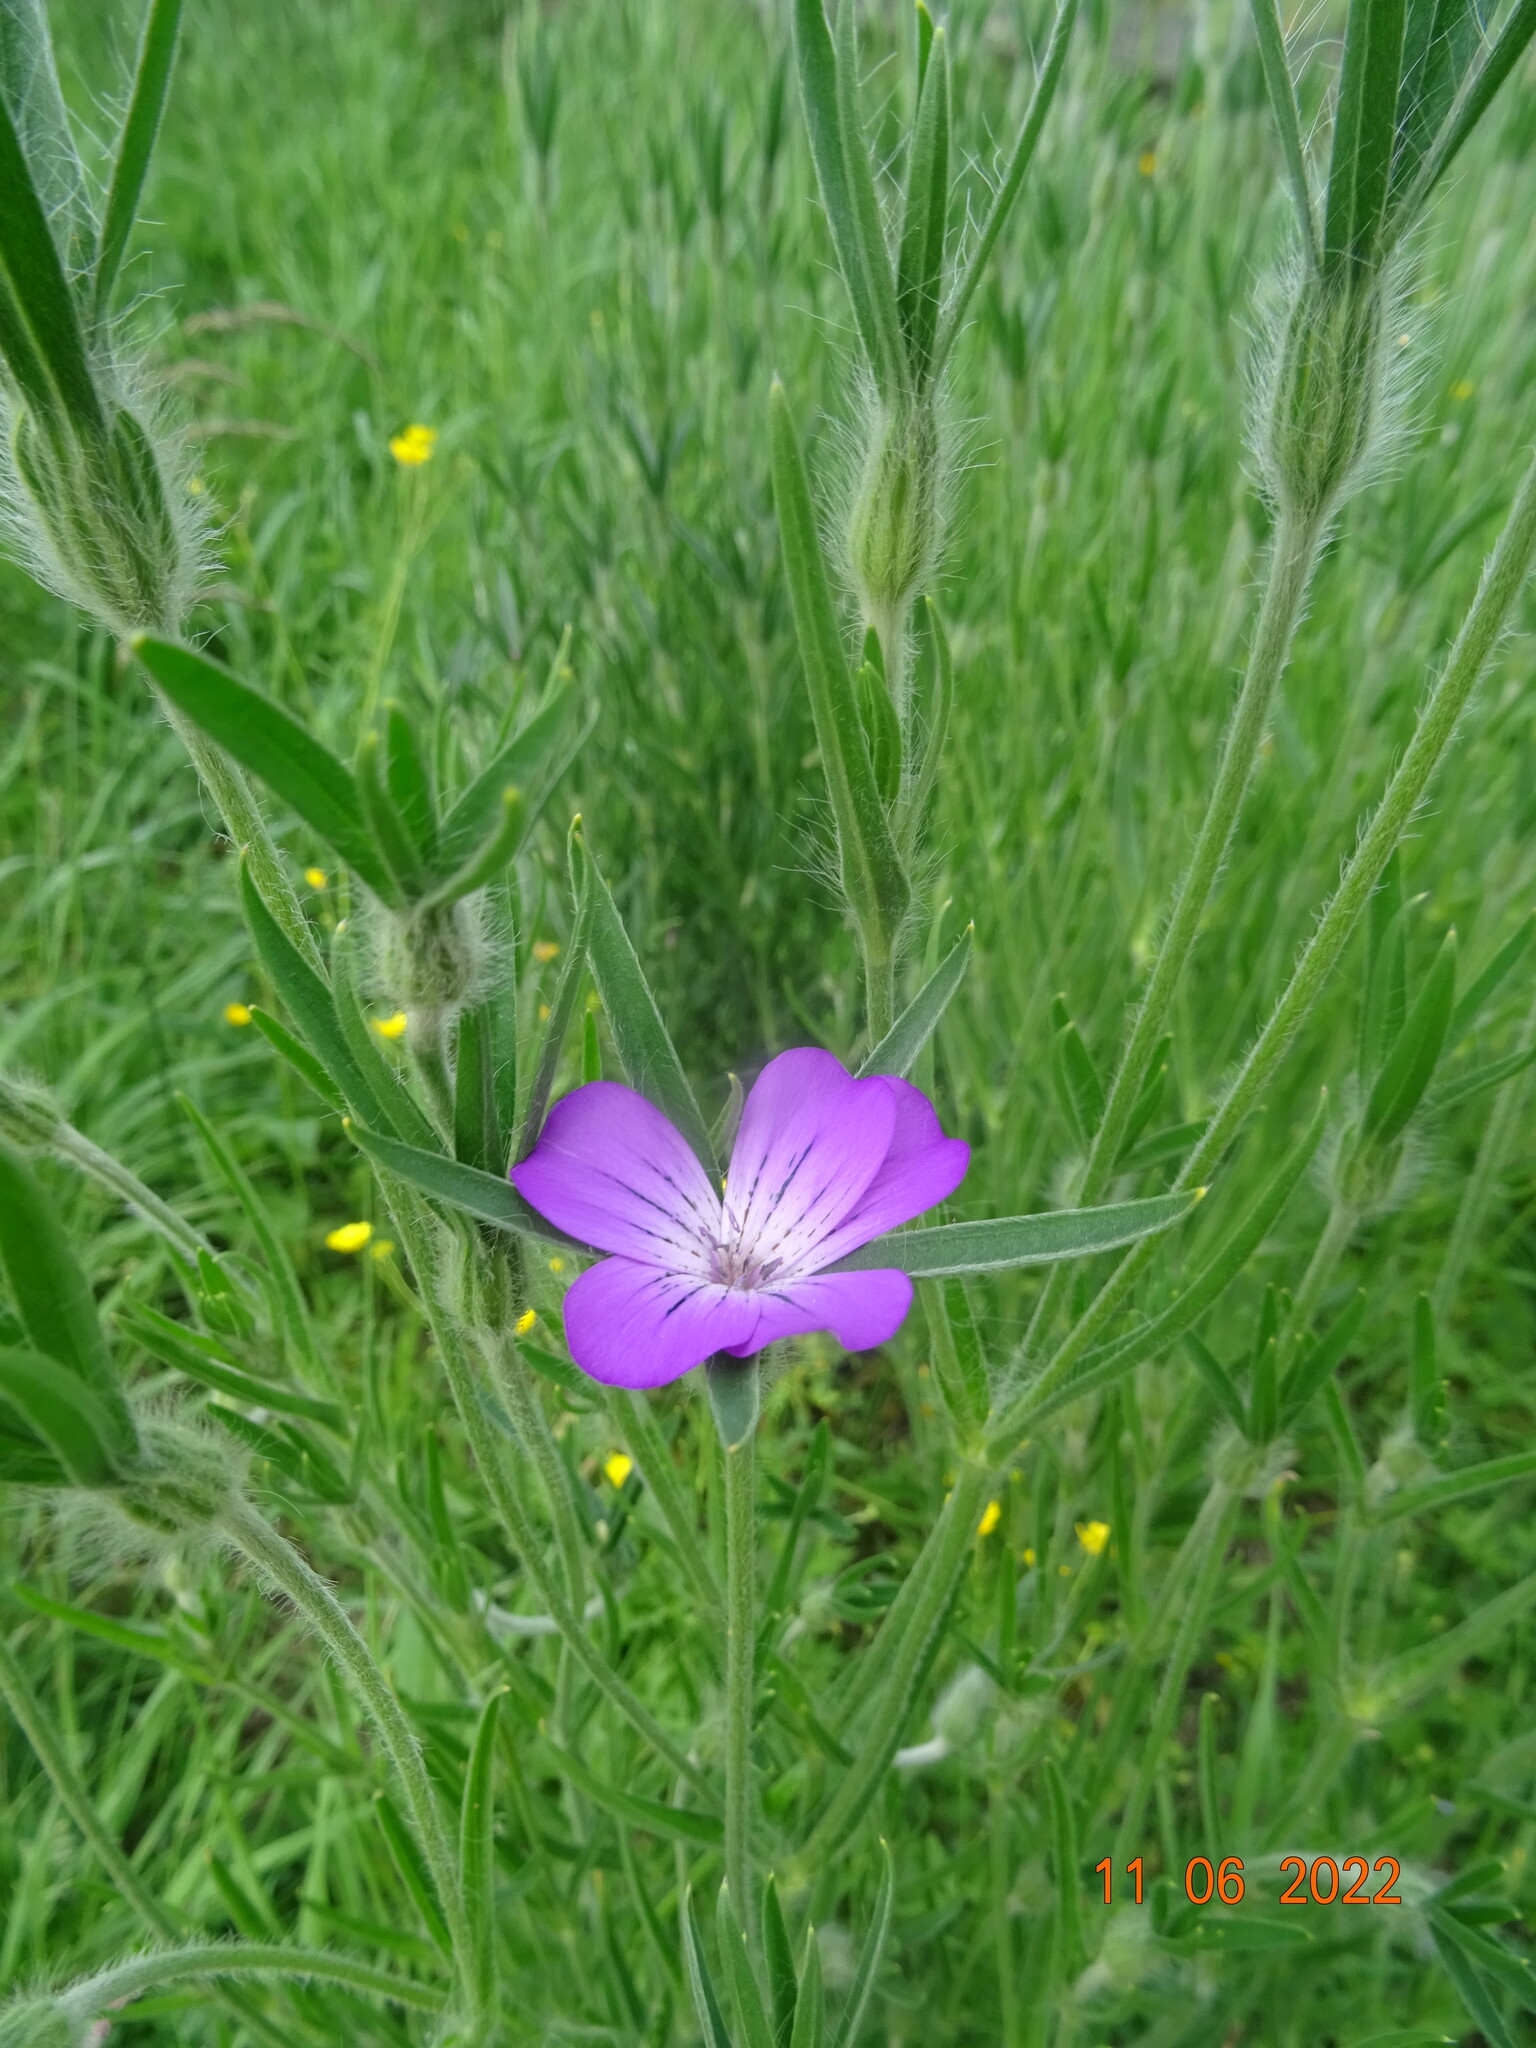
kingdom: Plantae
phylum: Tracheophyta
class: Magnoliopsida
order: Caryophyllales
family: Caryophyllaceae
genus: Agrostemma
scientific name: Agrostemma githago
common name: Common corncockle
